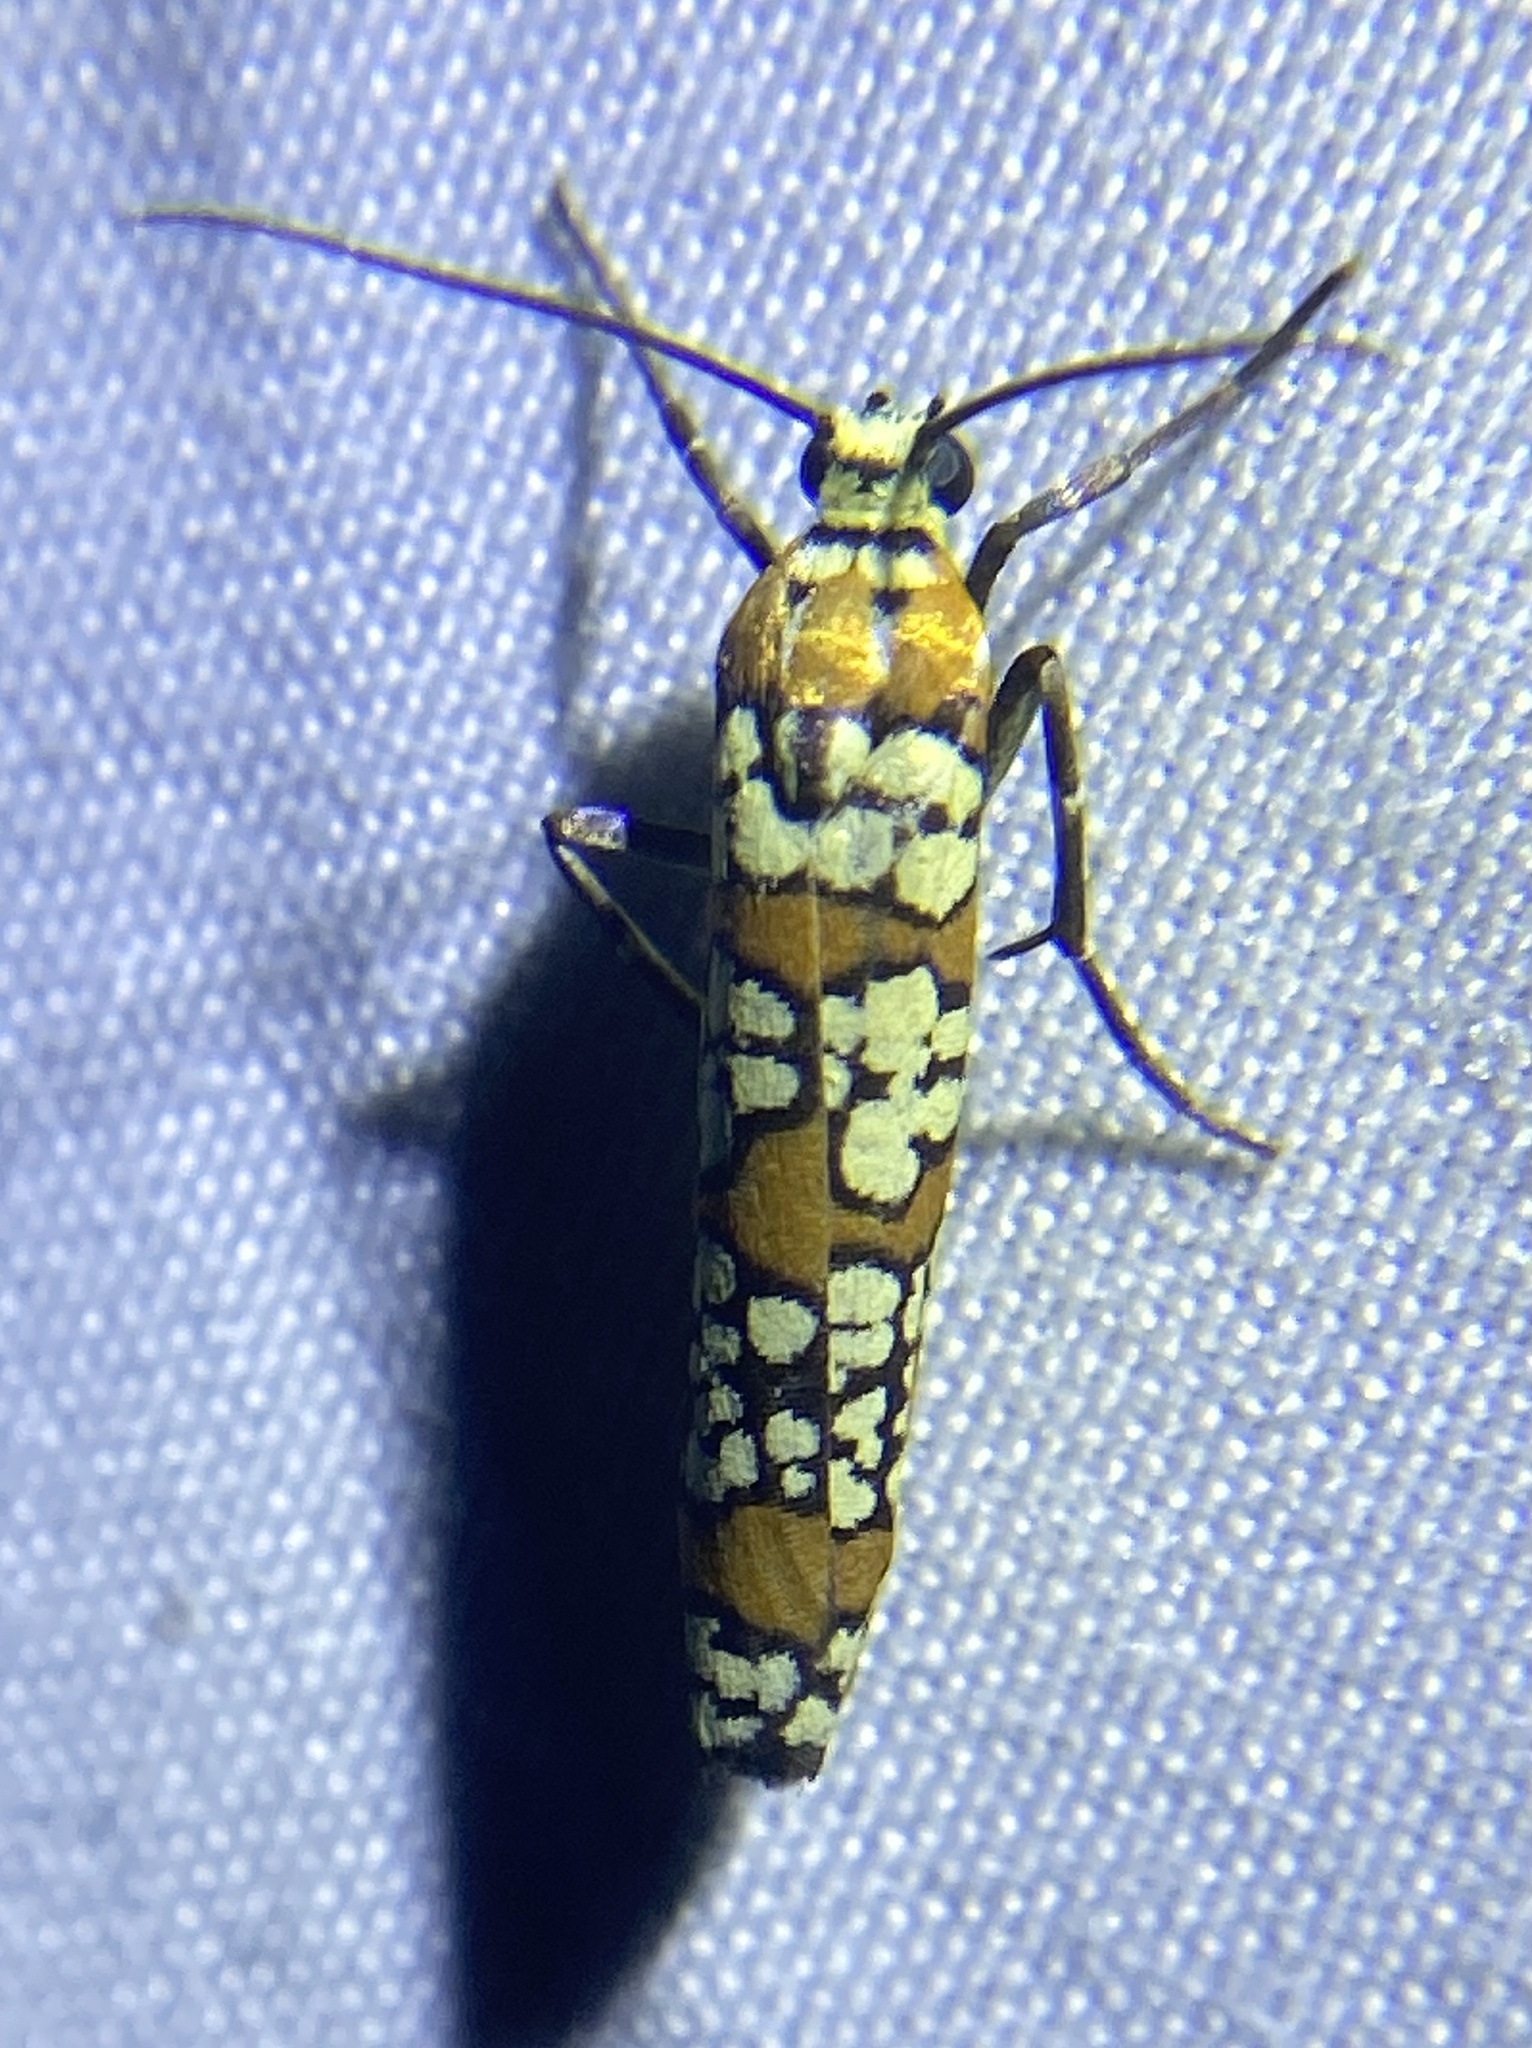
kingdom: Animalia
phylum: Arthropoda
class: Insecta
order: Lepidoptera
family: Attevidae
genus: Atteva
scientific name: Atteva punctella
